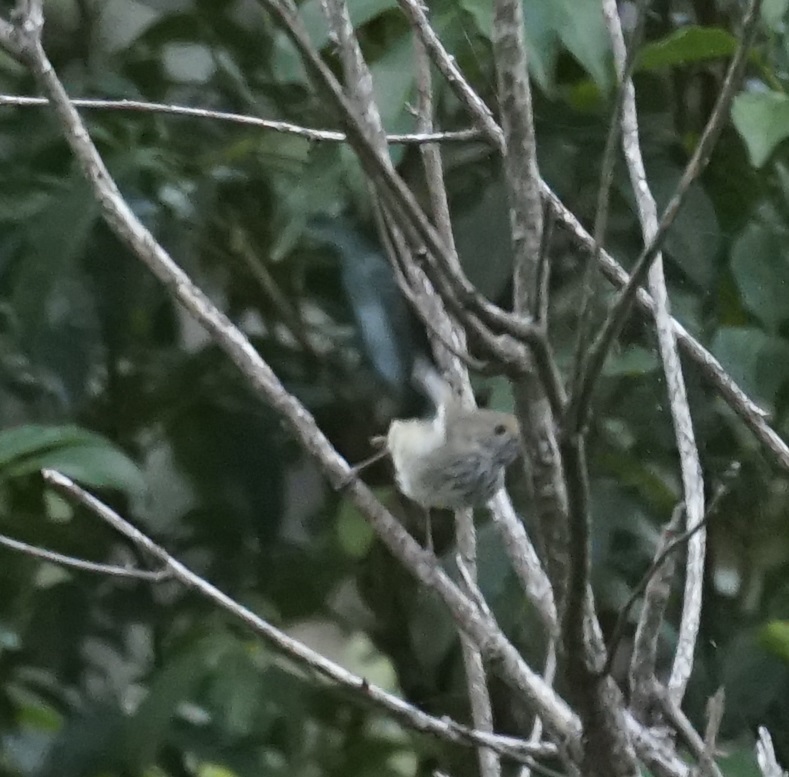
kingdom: Animalia
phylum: Chordata
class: Aves
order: Passeriformes
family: Acanthizidae
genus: Acanthiza
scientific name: Acanthiza pusilla
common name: Brown thornbill
